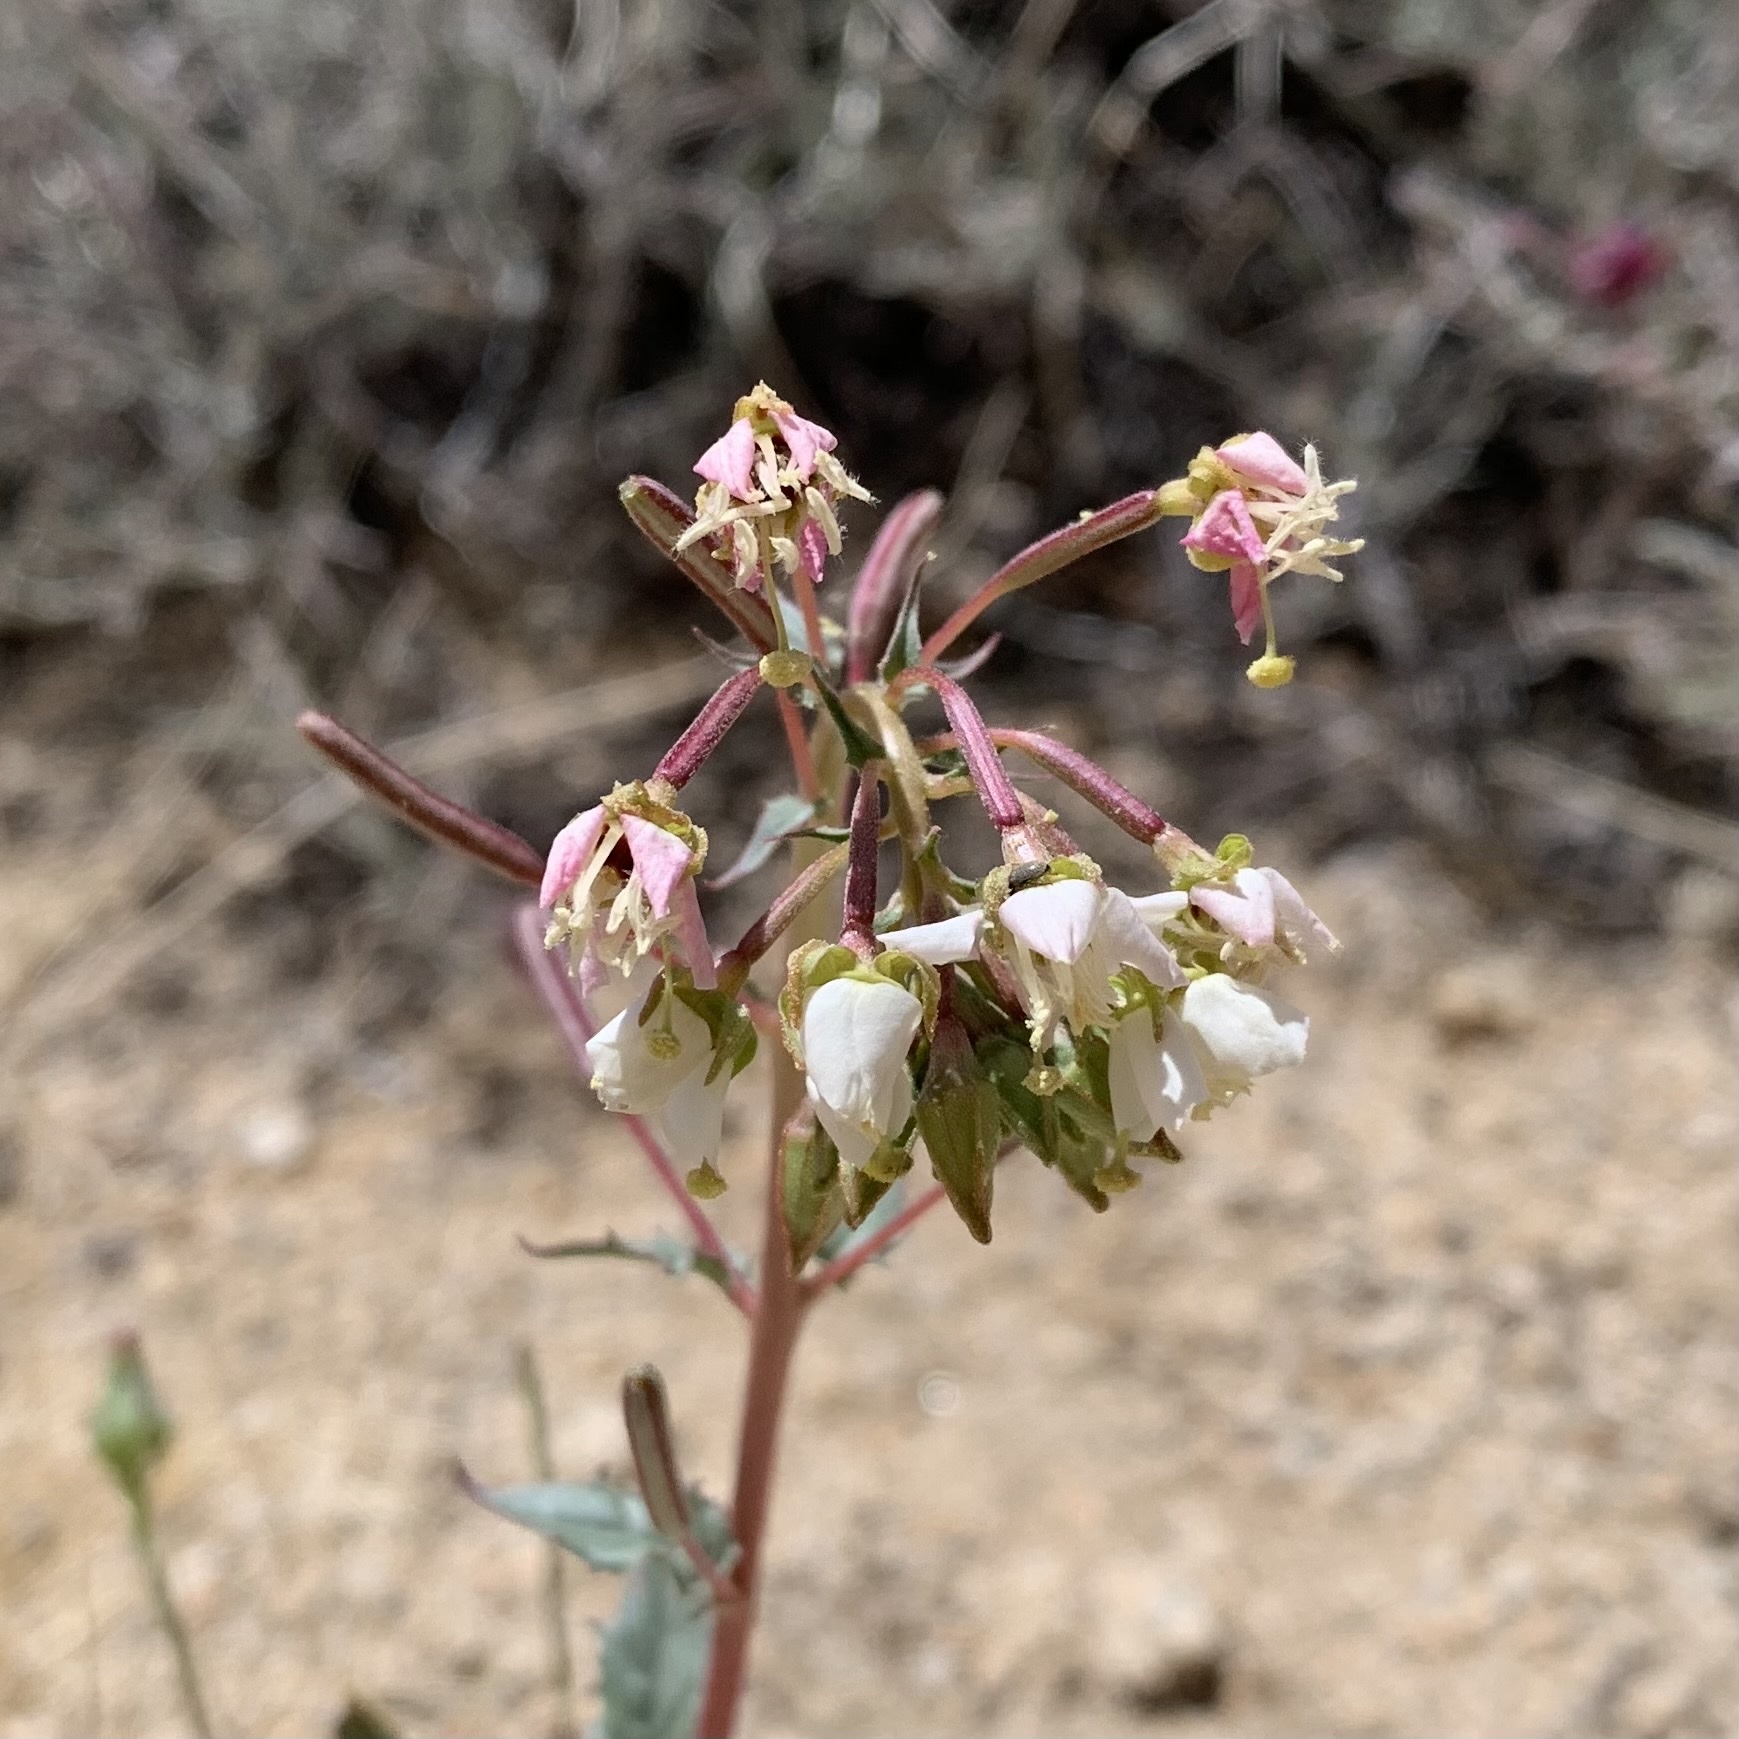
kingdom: Plantae
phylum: Tracheophyta
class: Magnoliopsida
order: Myrtales
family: Onagraceae
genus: Chylismia
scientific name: Chylismia claviformis
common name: Browneyes
